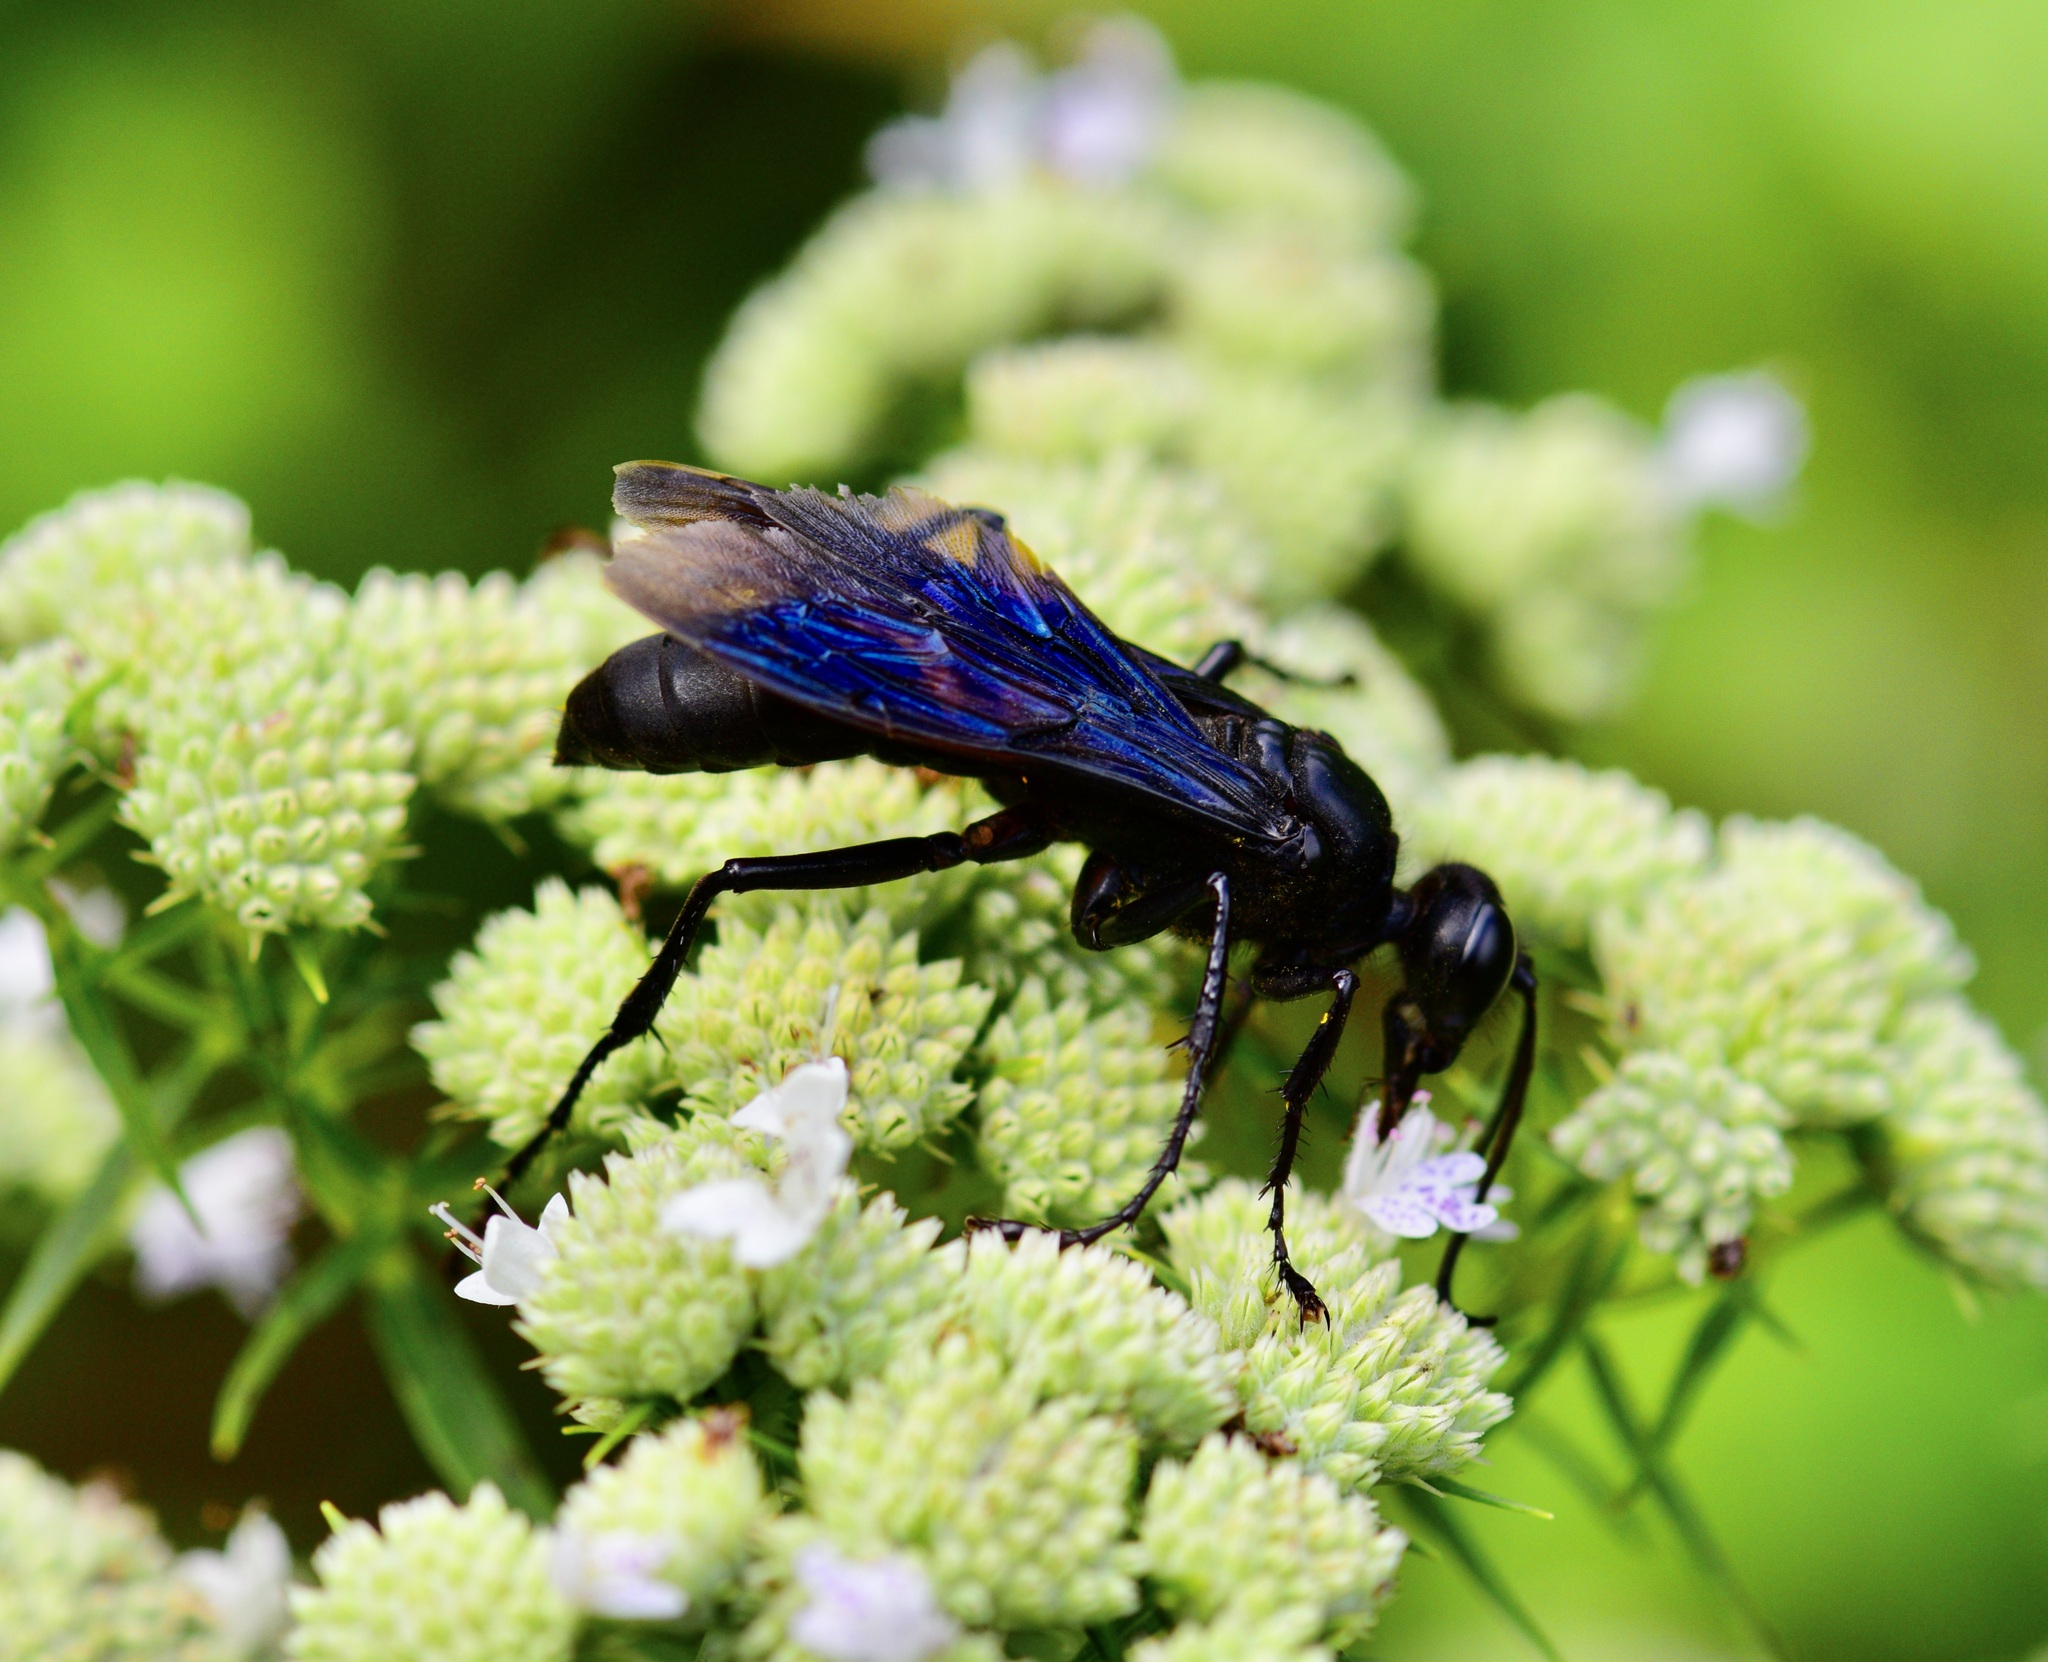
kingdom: Animalia
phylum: Arthropoda
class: Insecta
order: Hymenoptera
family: Sphecidae
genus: Sphex
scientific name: Sphex pensylvanicus
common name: Great black digger wasp
